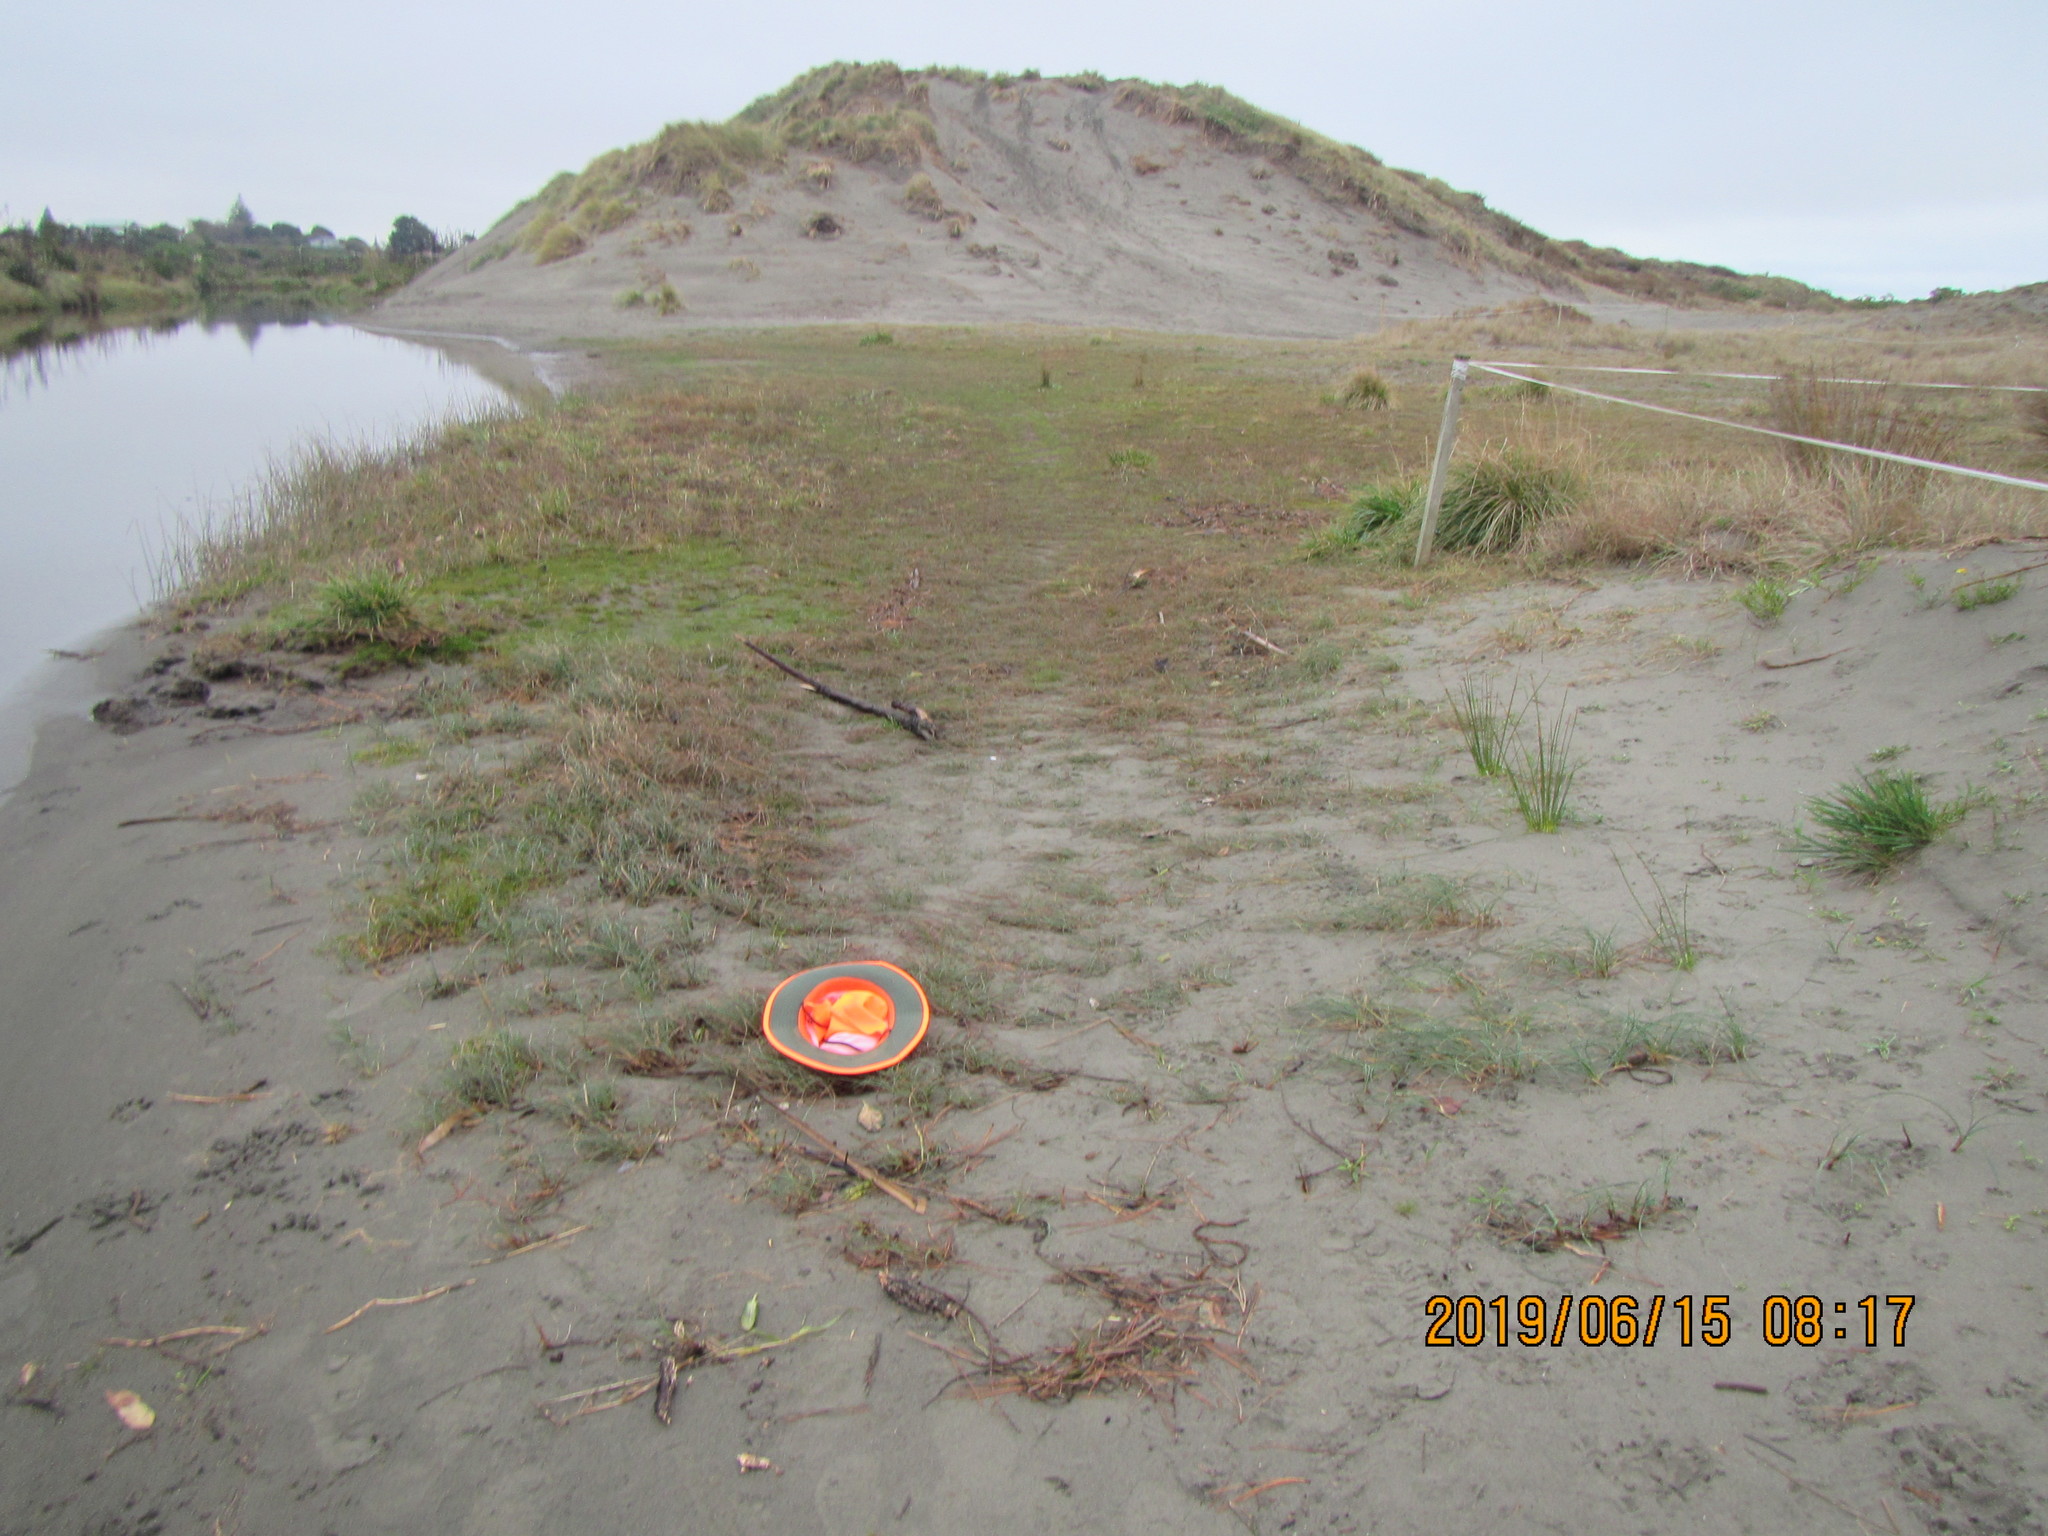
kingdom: Plantae
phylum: Tracheophyta
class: Liliopsida
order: Poales
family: Cyperaceae
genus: Carex
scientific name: Carex pumila
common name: Dwarf sedge
